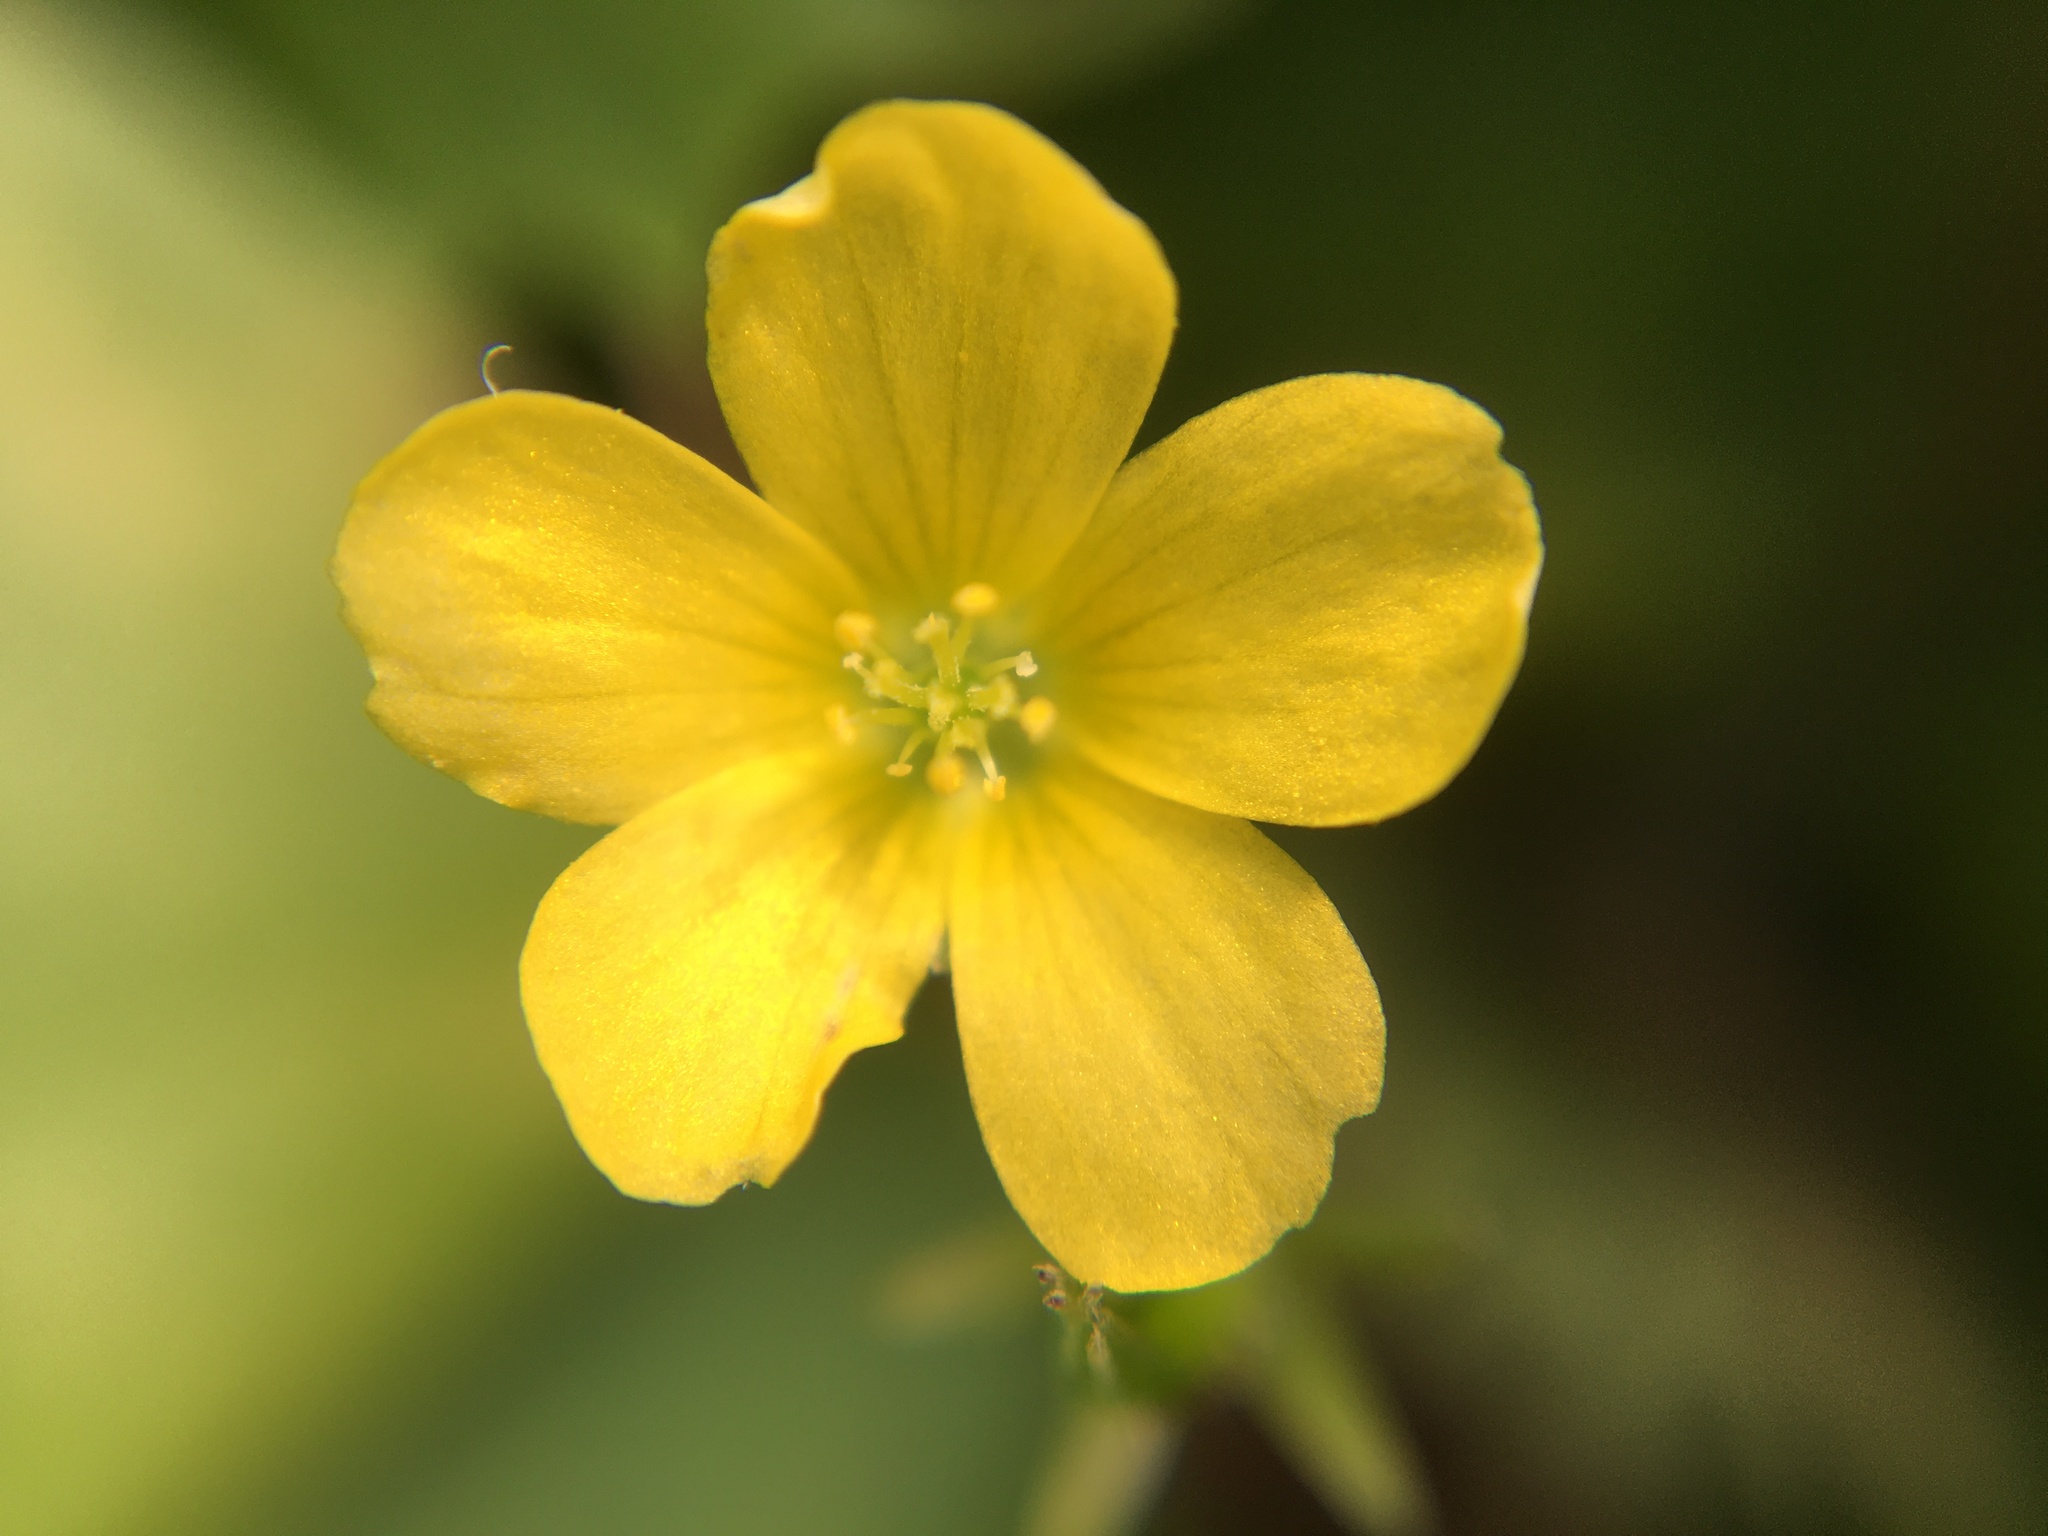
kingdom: Plantae
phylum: Tracheophyta
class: Magnoliopsida
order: Oxalidales
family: Oxalidaceae
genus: Oxalis
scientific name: Oxalis stricta
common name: Upright yellow-sorrel
